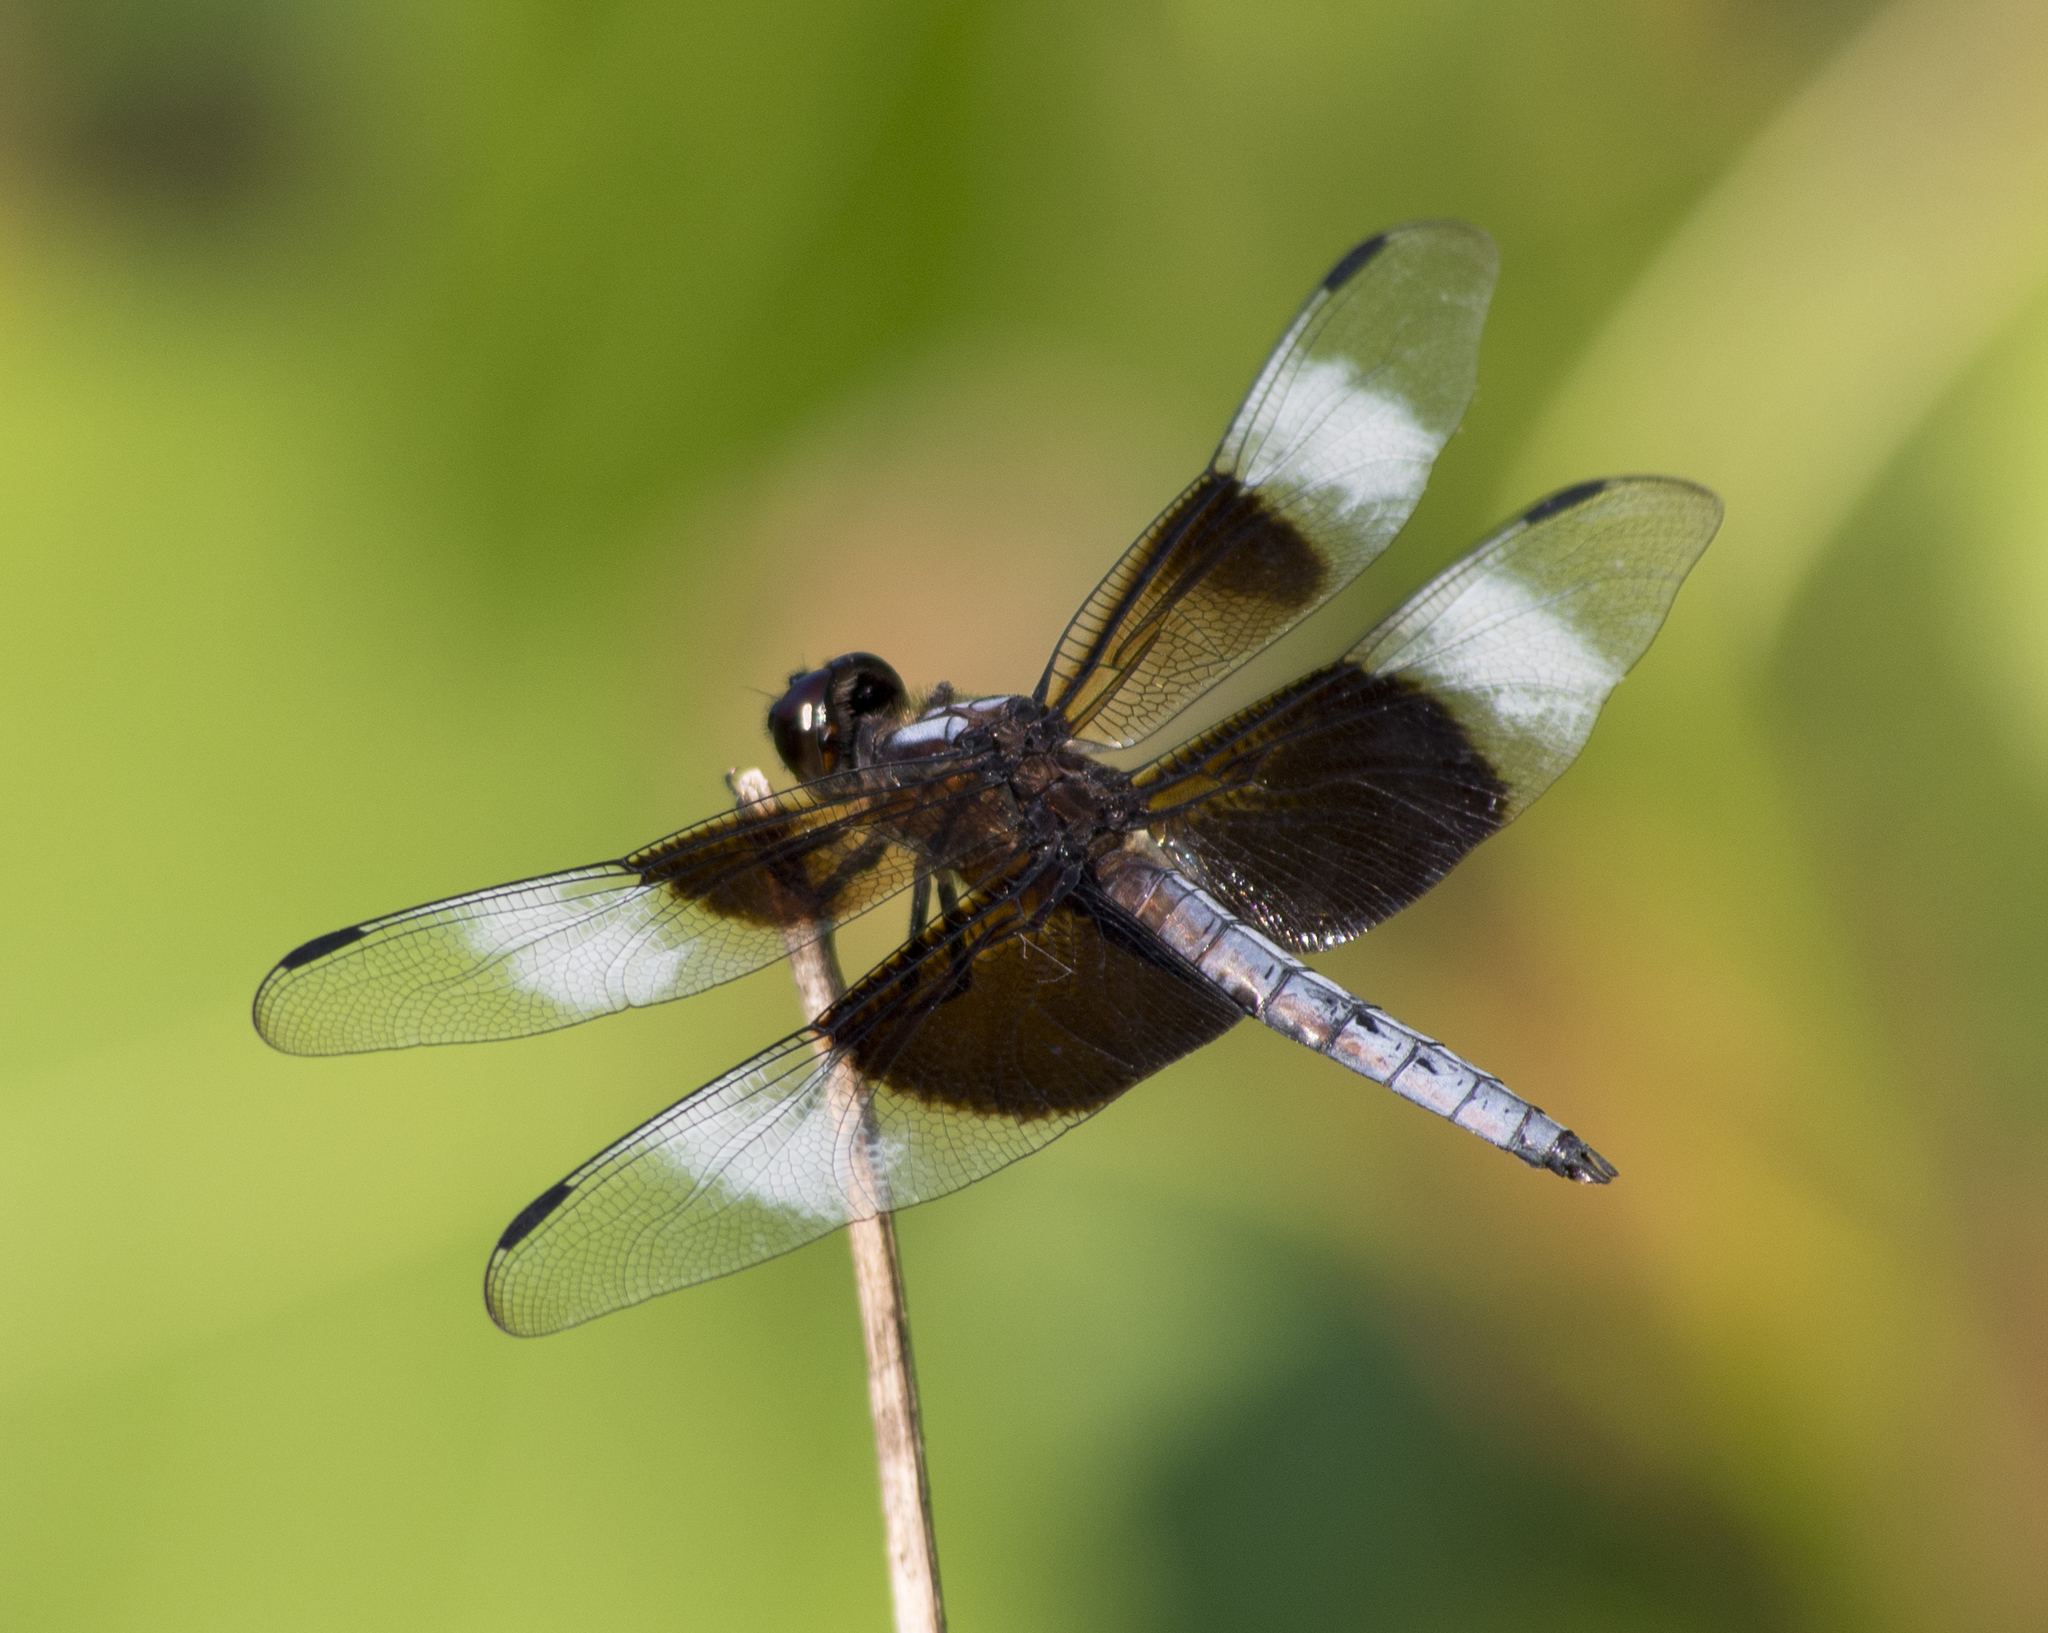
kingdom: Animalia
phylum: Arthropoda
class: Insecta
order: Odonata
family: Libellulidae
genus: Libellula
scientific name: Libellula luctuosa
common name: Widow skimmer
